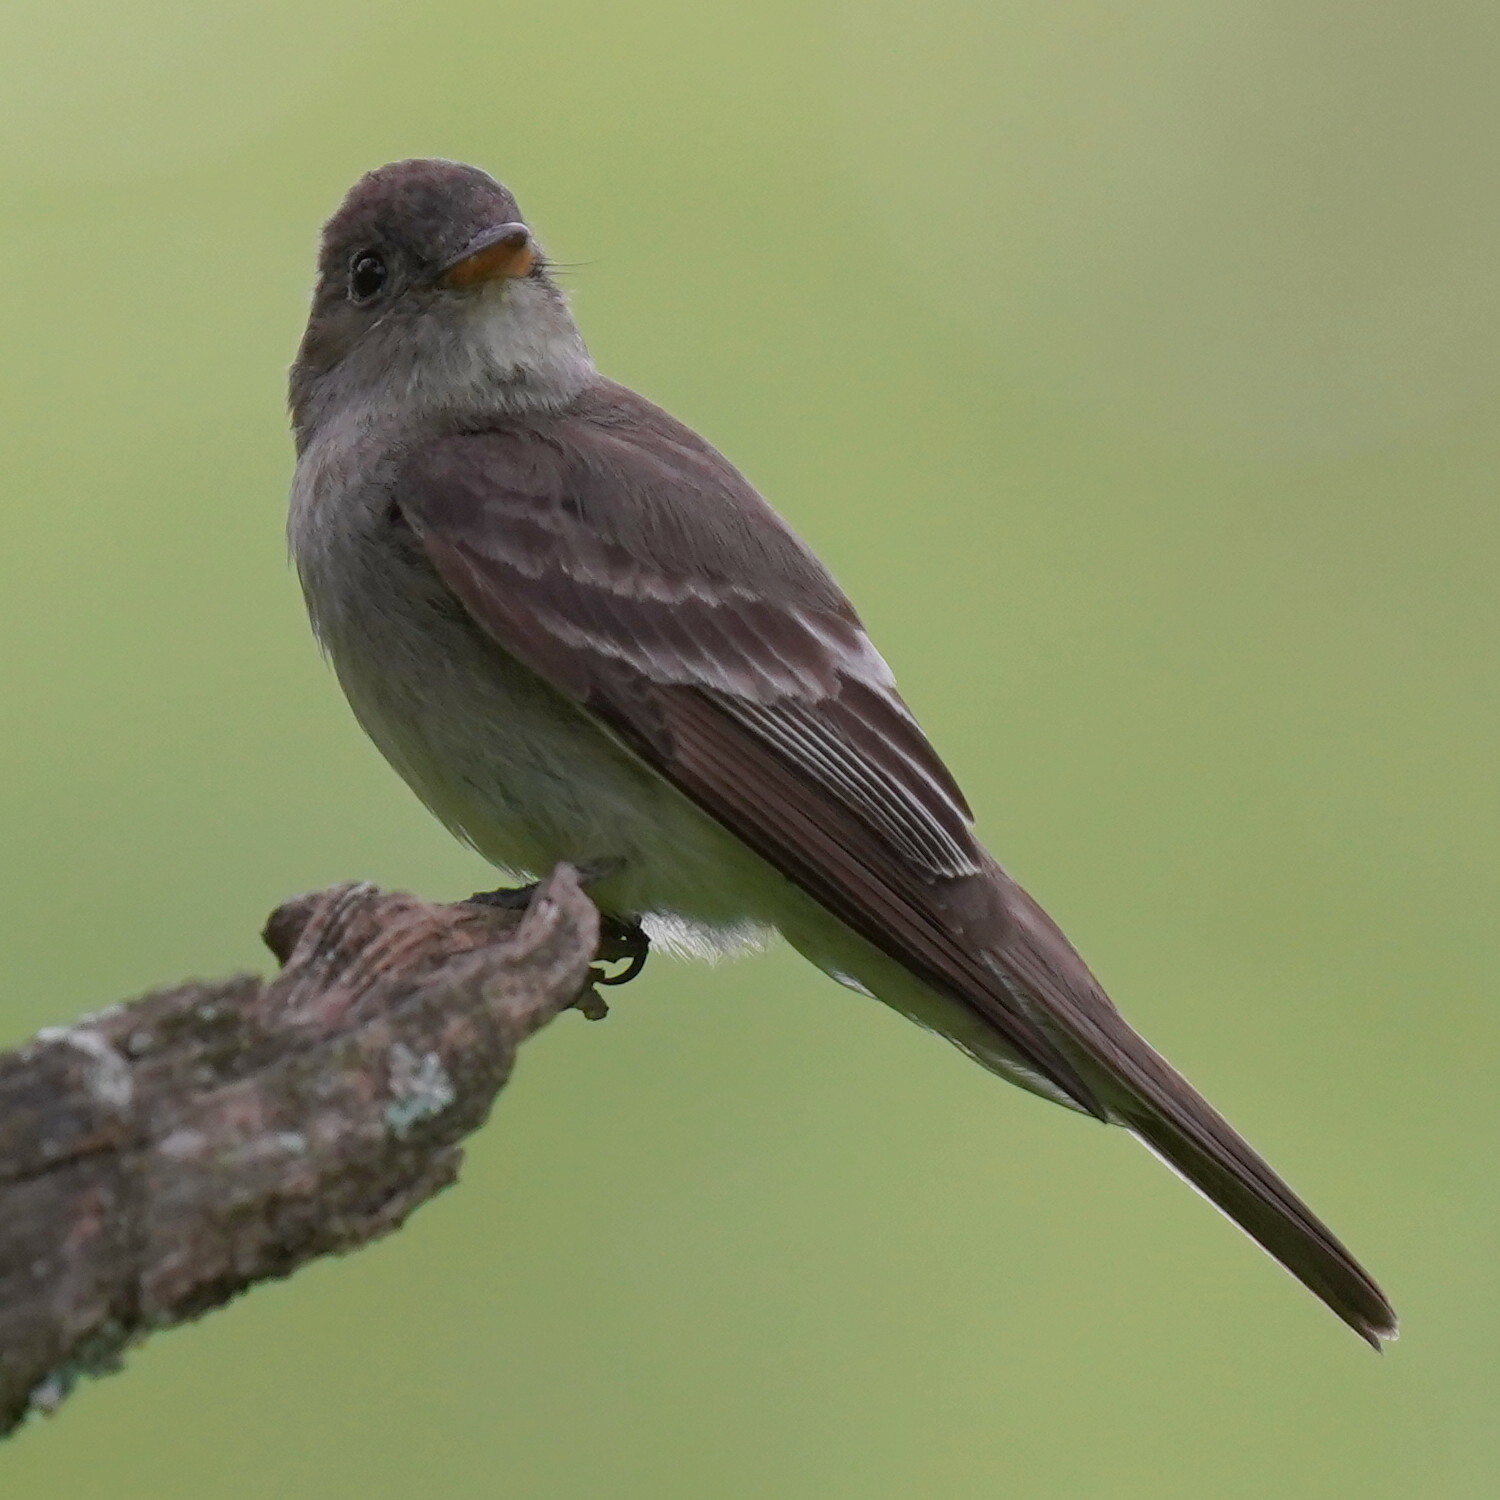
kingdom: Animalia
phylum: Chordata
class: Aves
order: Passeriformes
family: Tyrannidae
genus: Contopus
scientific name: Contopus virens
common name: Eastern wood-pewee
